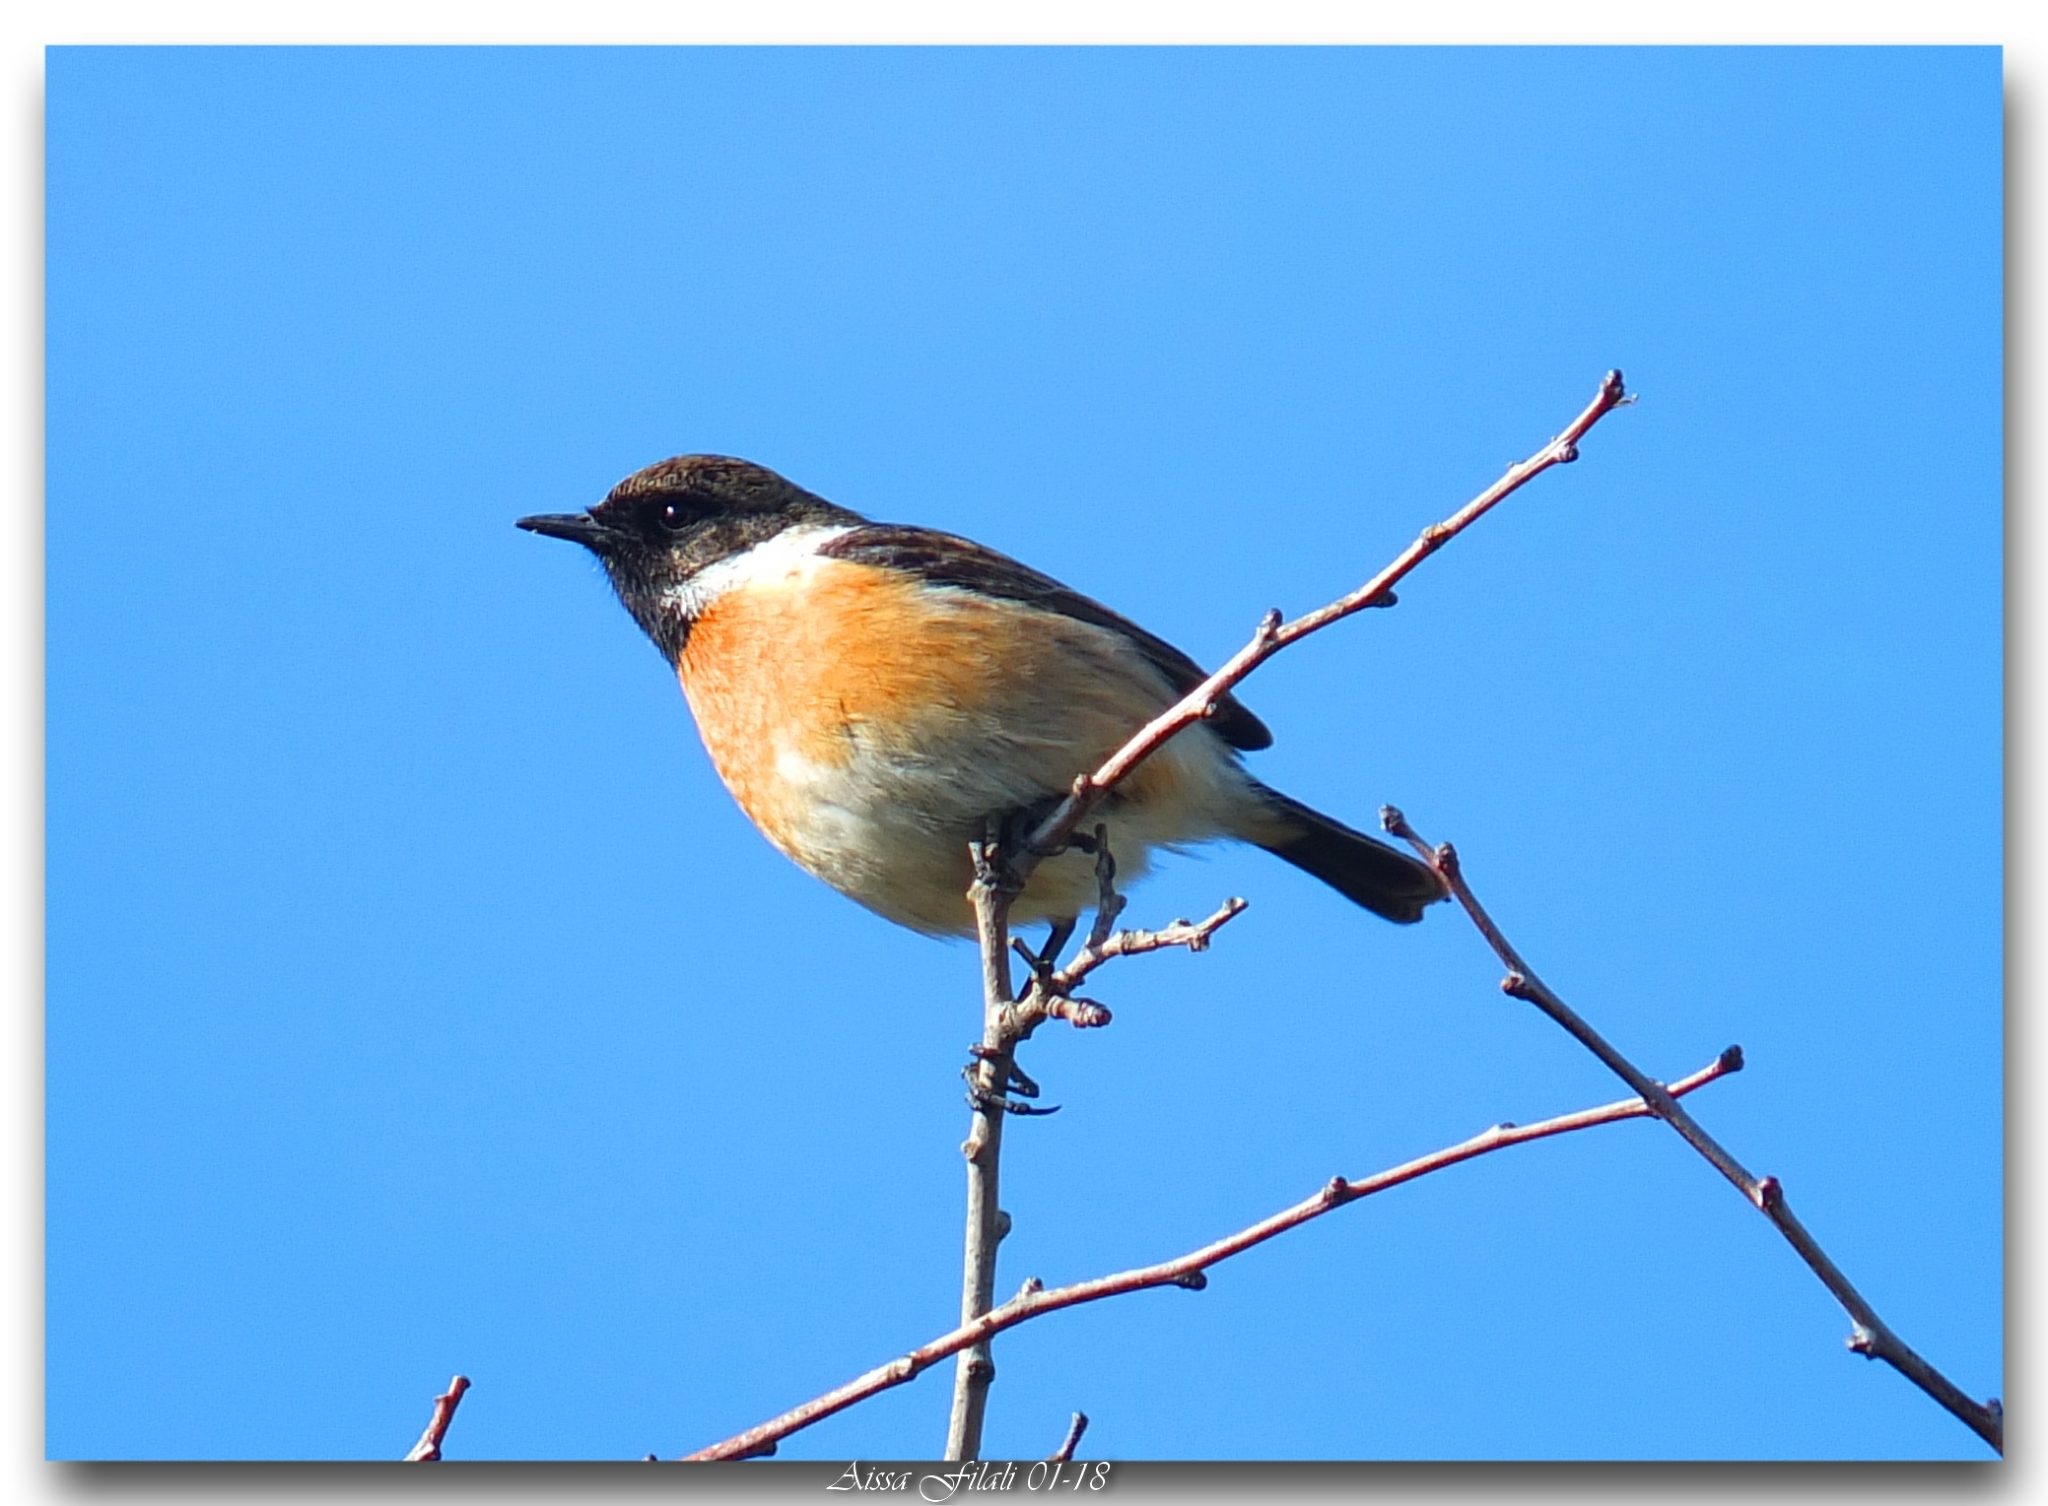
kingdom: Animalia
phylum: Chordata
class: Aves
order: Passeriformes
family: Muscicapidae
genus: Saxicola
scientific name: Saxicola rubicola
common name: European stonechat
